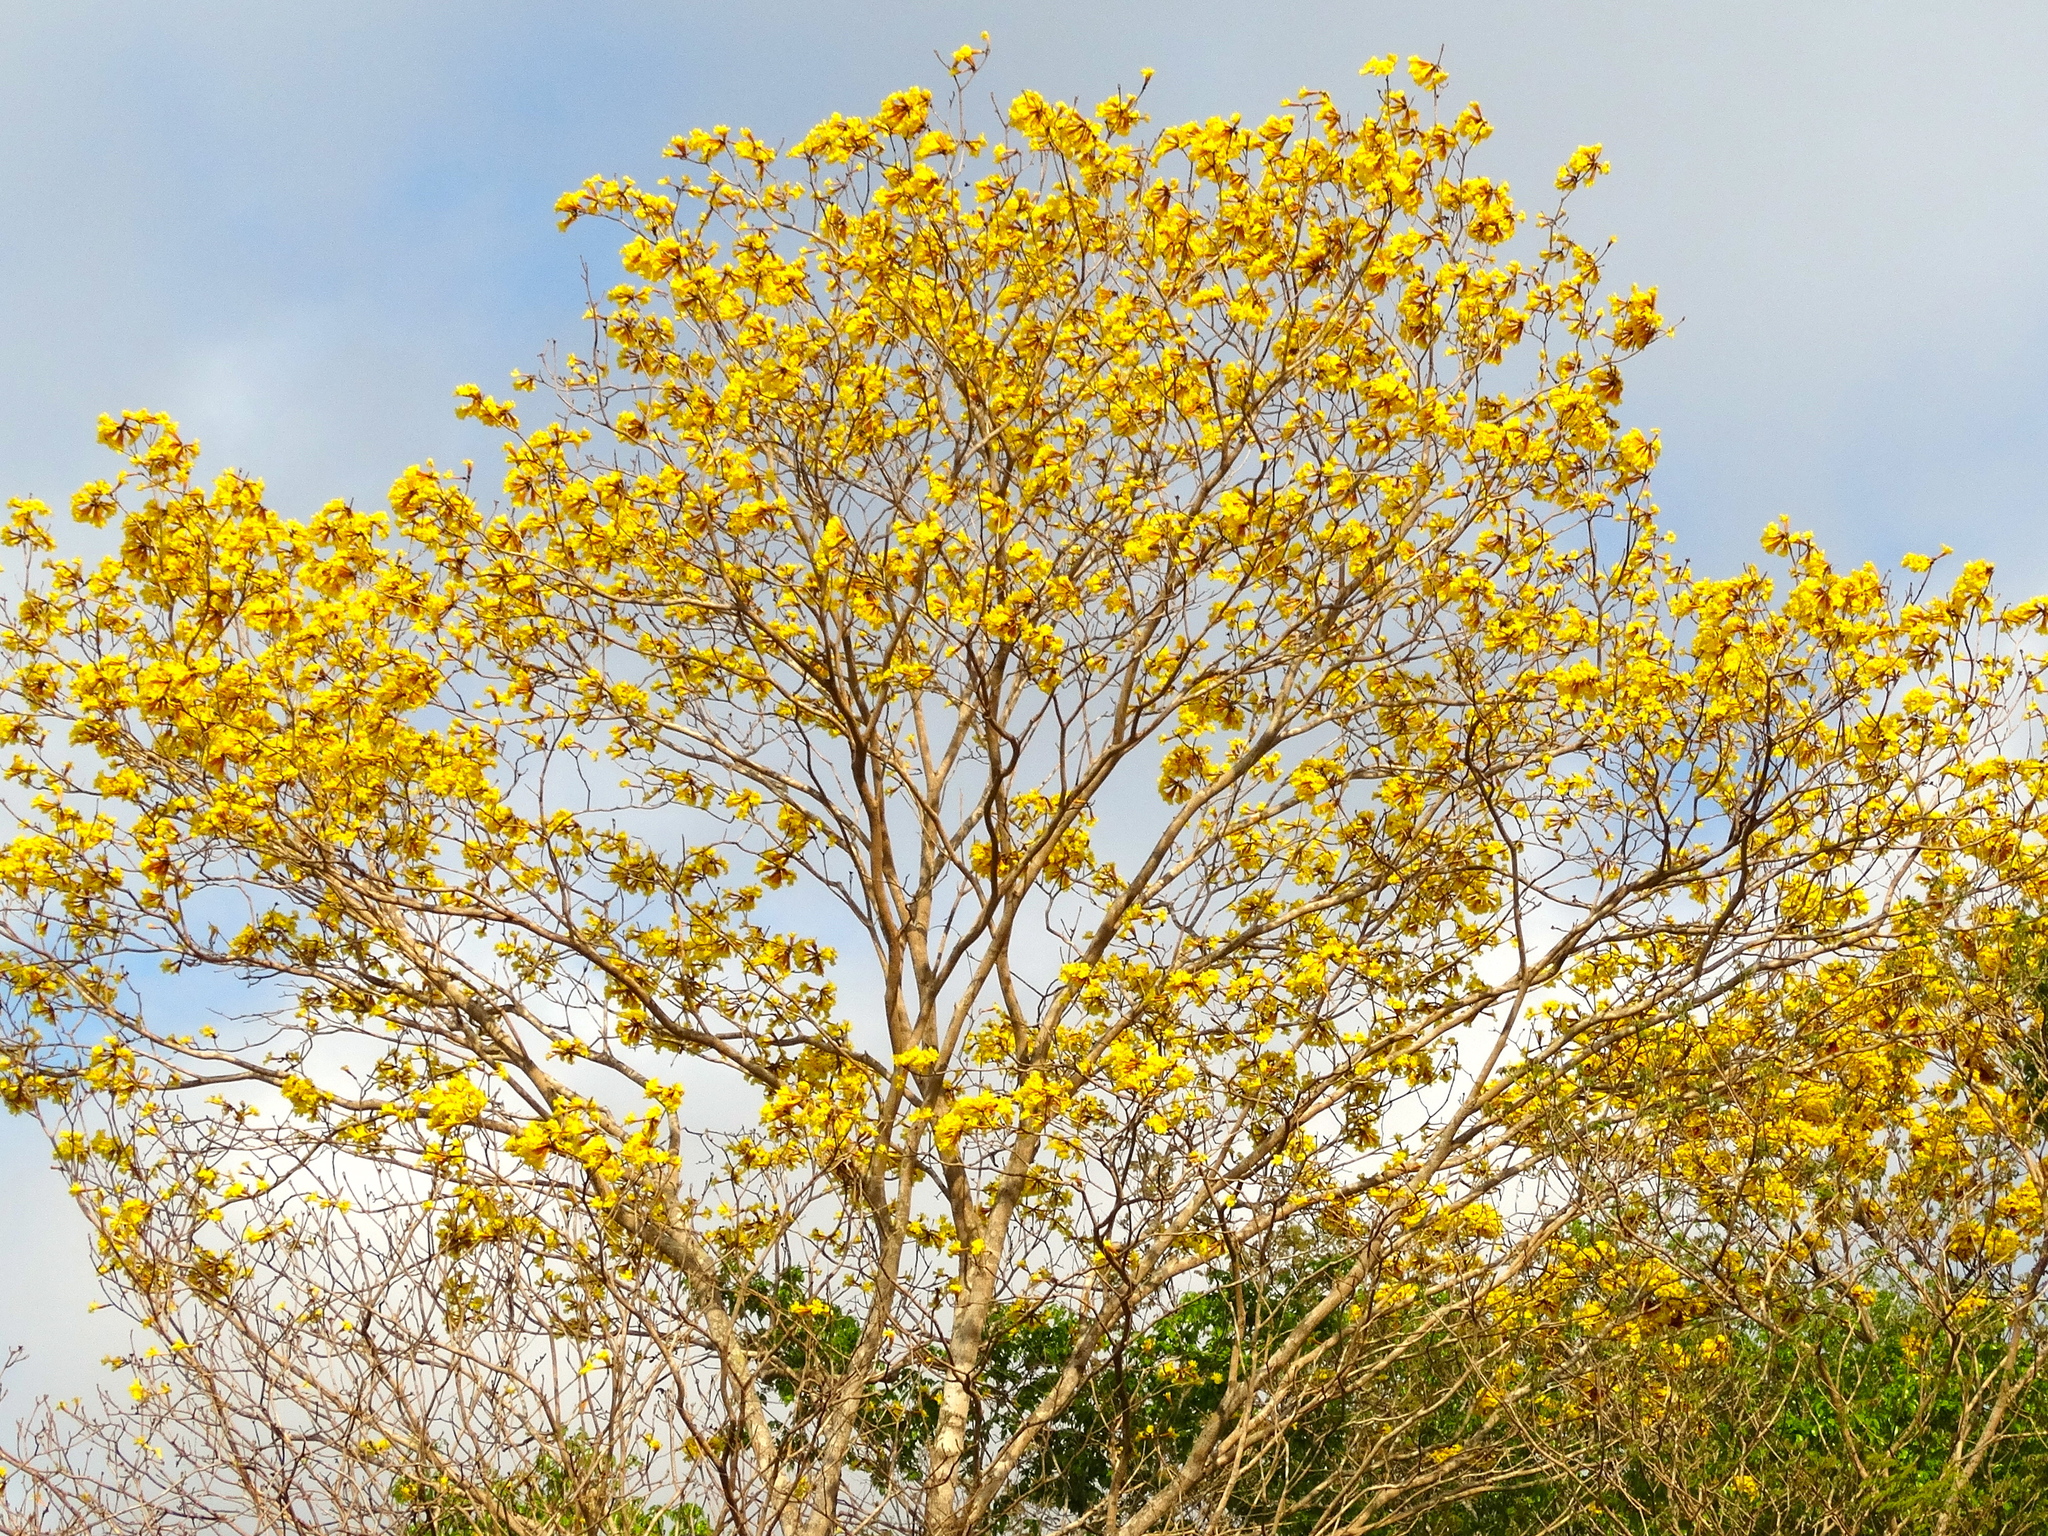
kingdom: Plantae
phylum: Tracheophyta
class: Magnoliopsida
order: Lamiales
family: Bignoniaceae
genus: Handroanthus
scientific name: Handroanthus chrysanthus
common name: Trumpet trees
